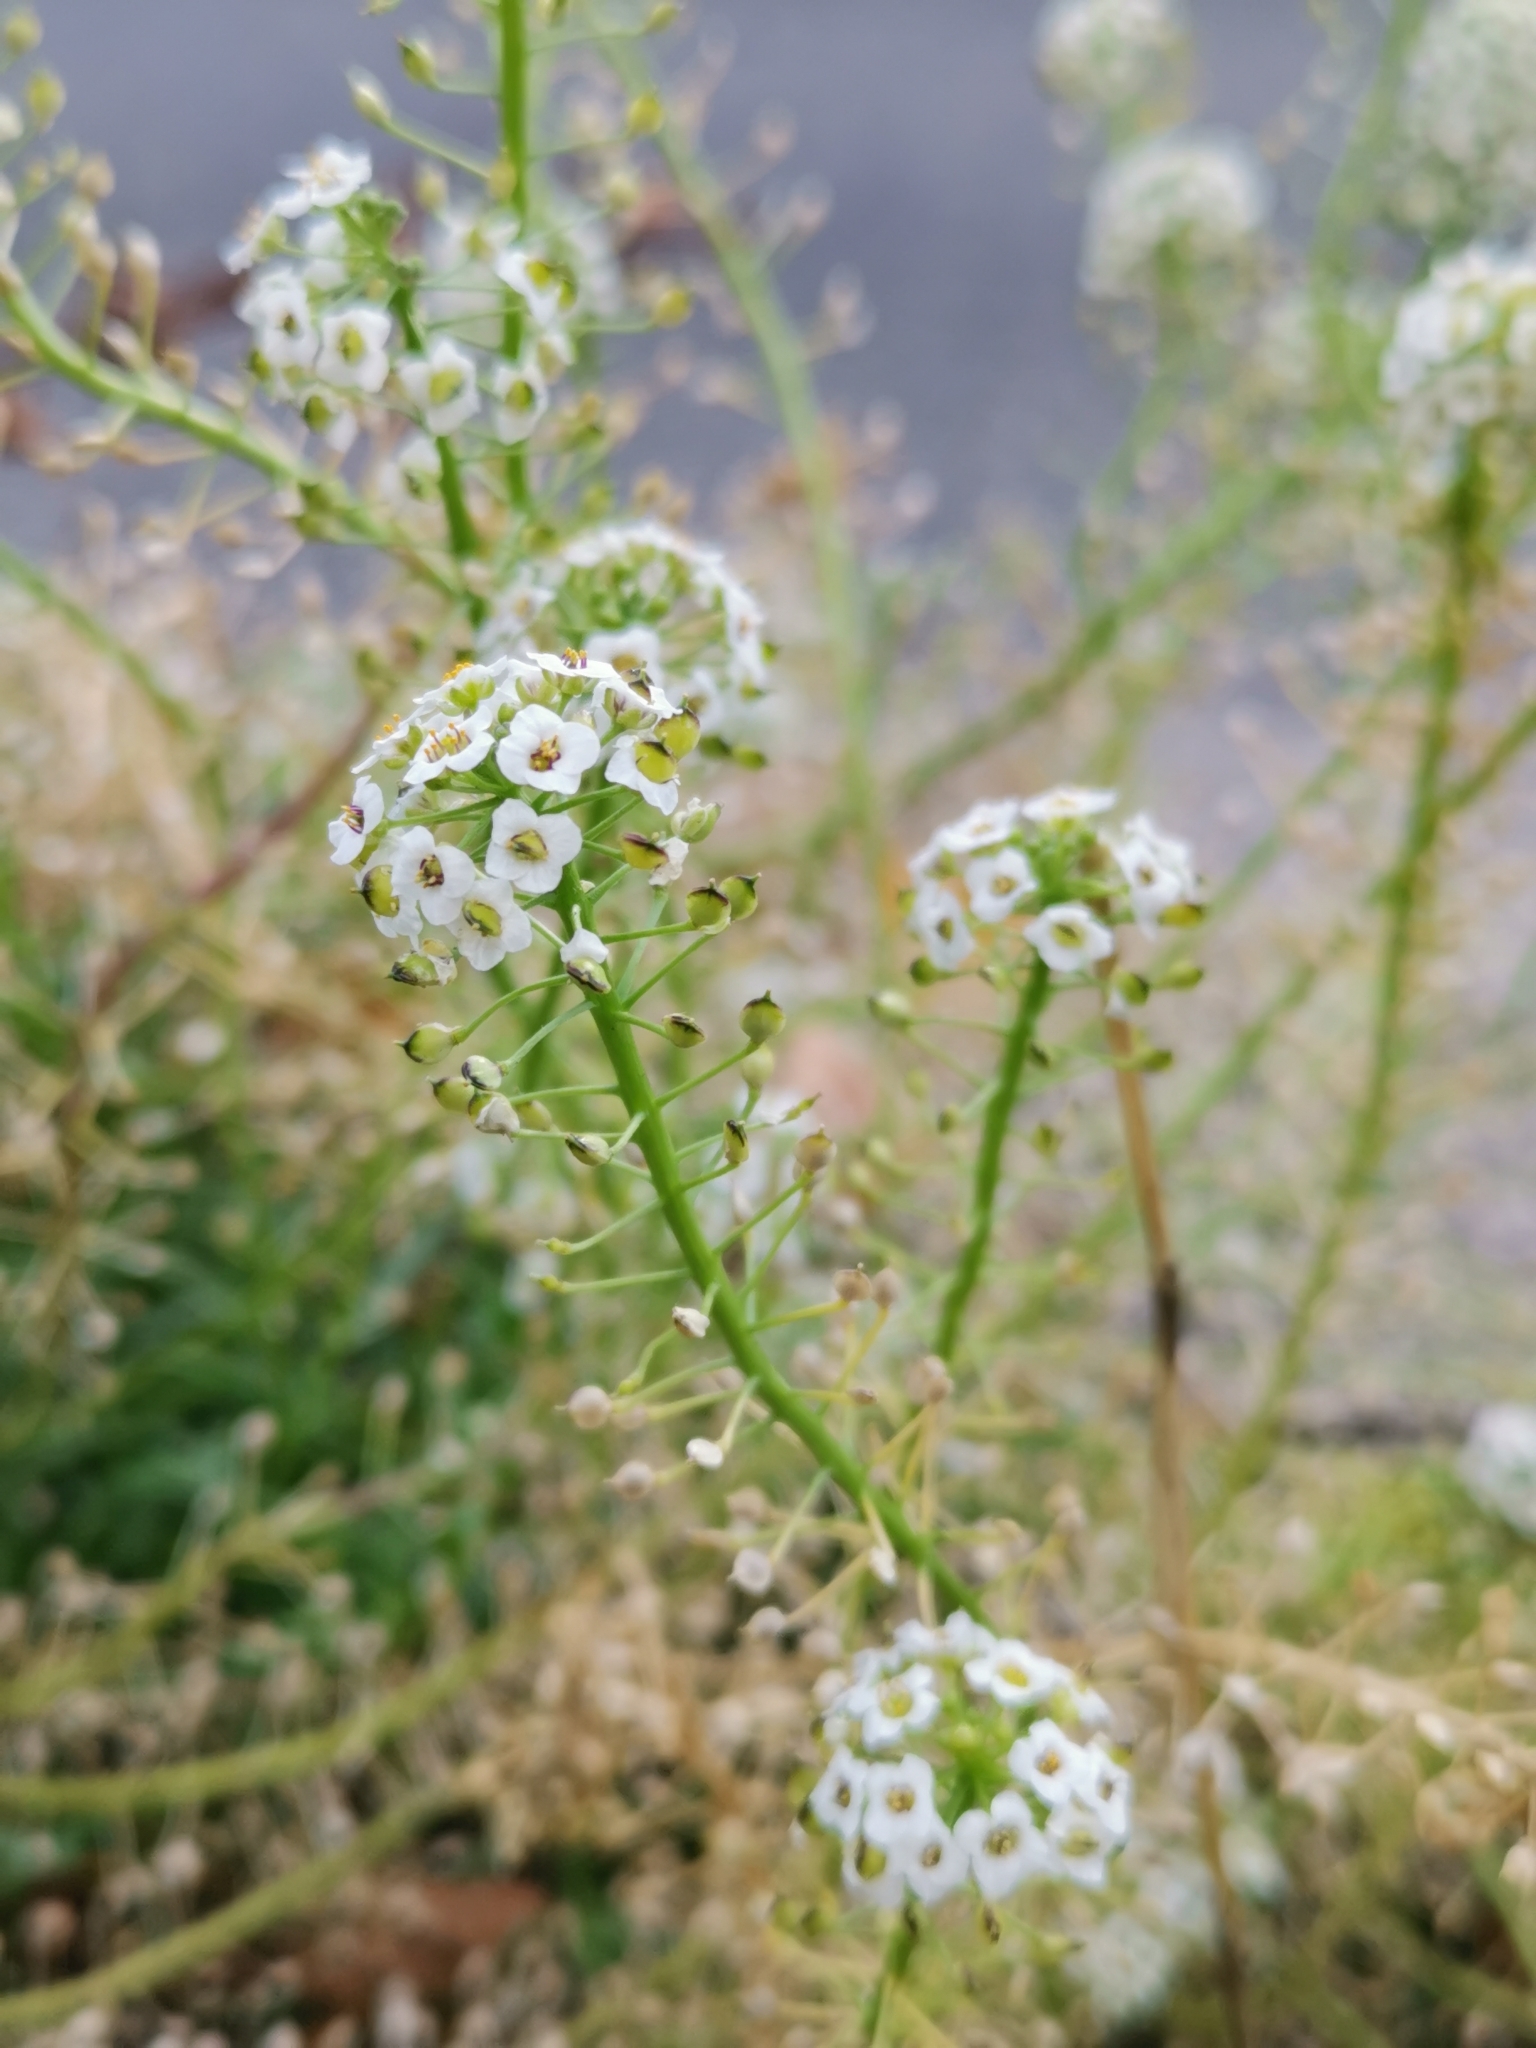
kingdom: Plantae
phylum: Tracheophyta
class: Magnoliopsida
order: Brassicales
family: Brassicaceae
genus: Lobularia
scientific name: Lobularia maritima
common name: Sweet alison
